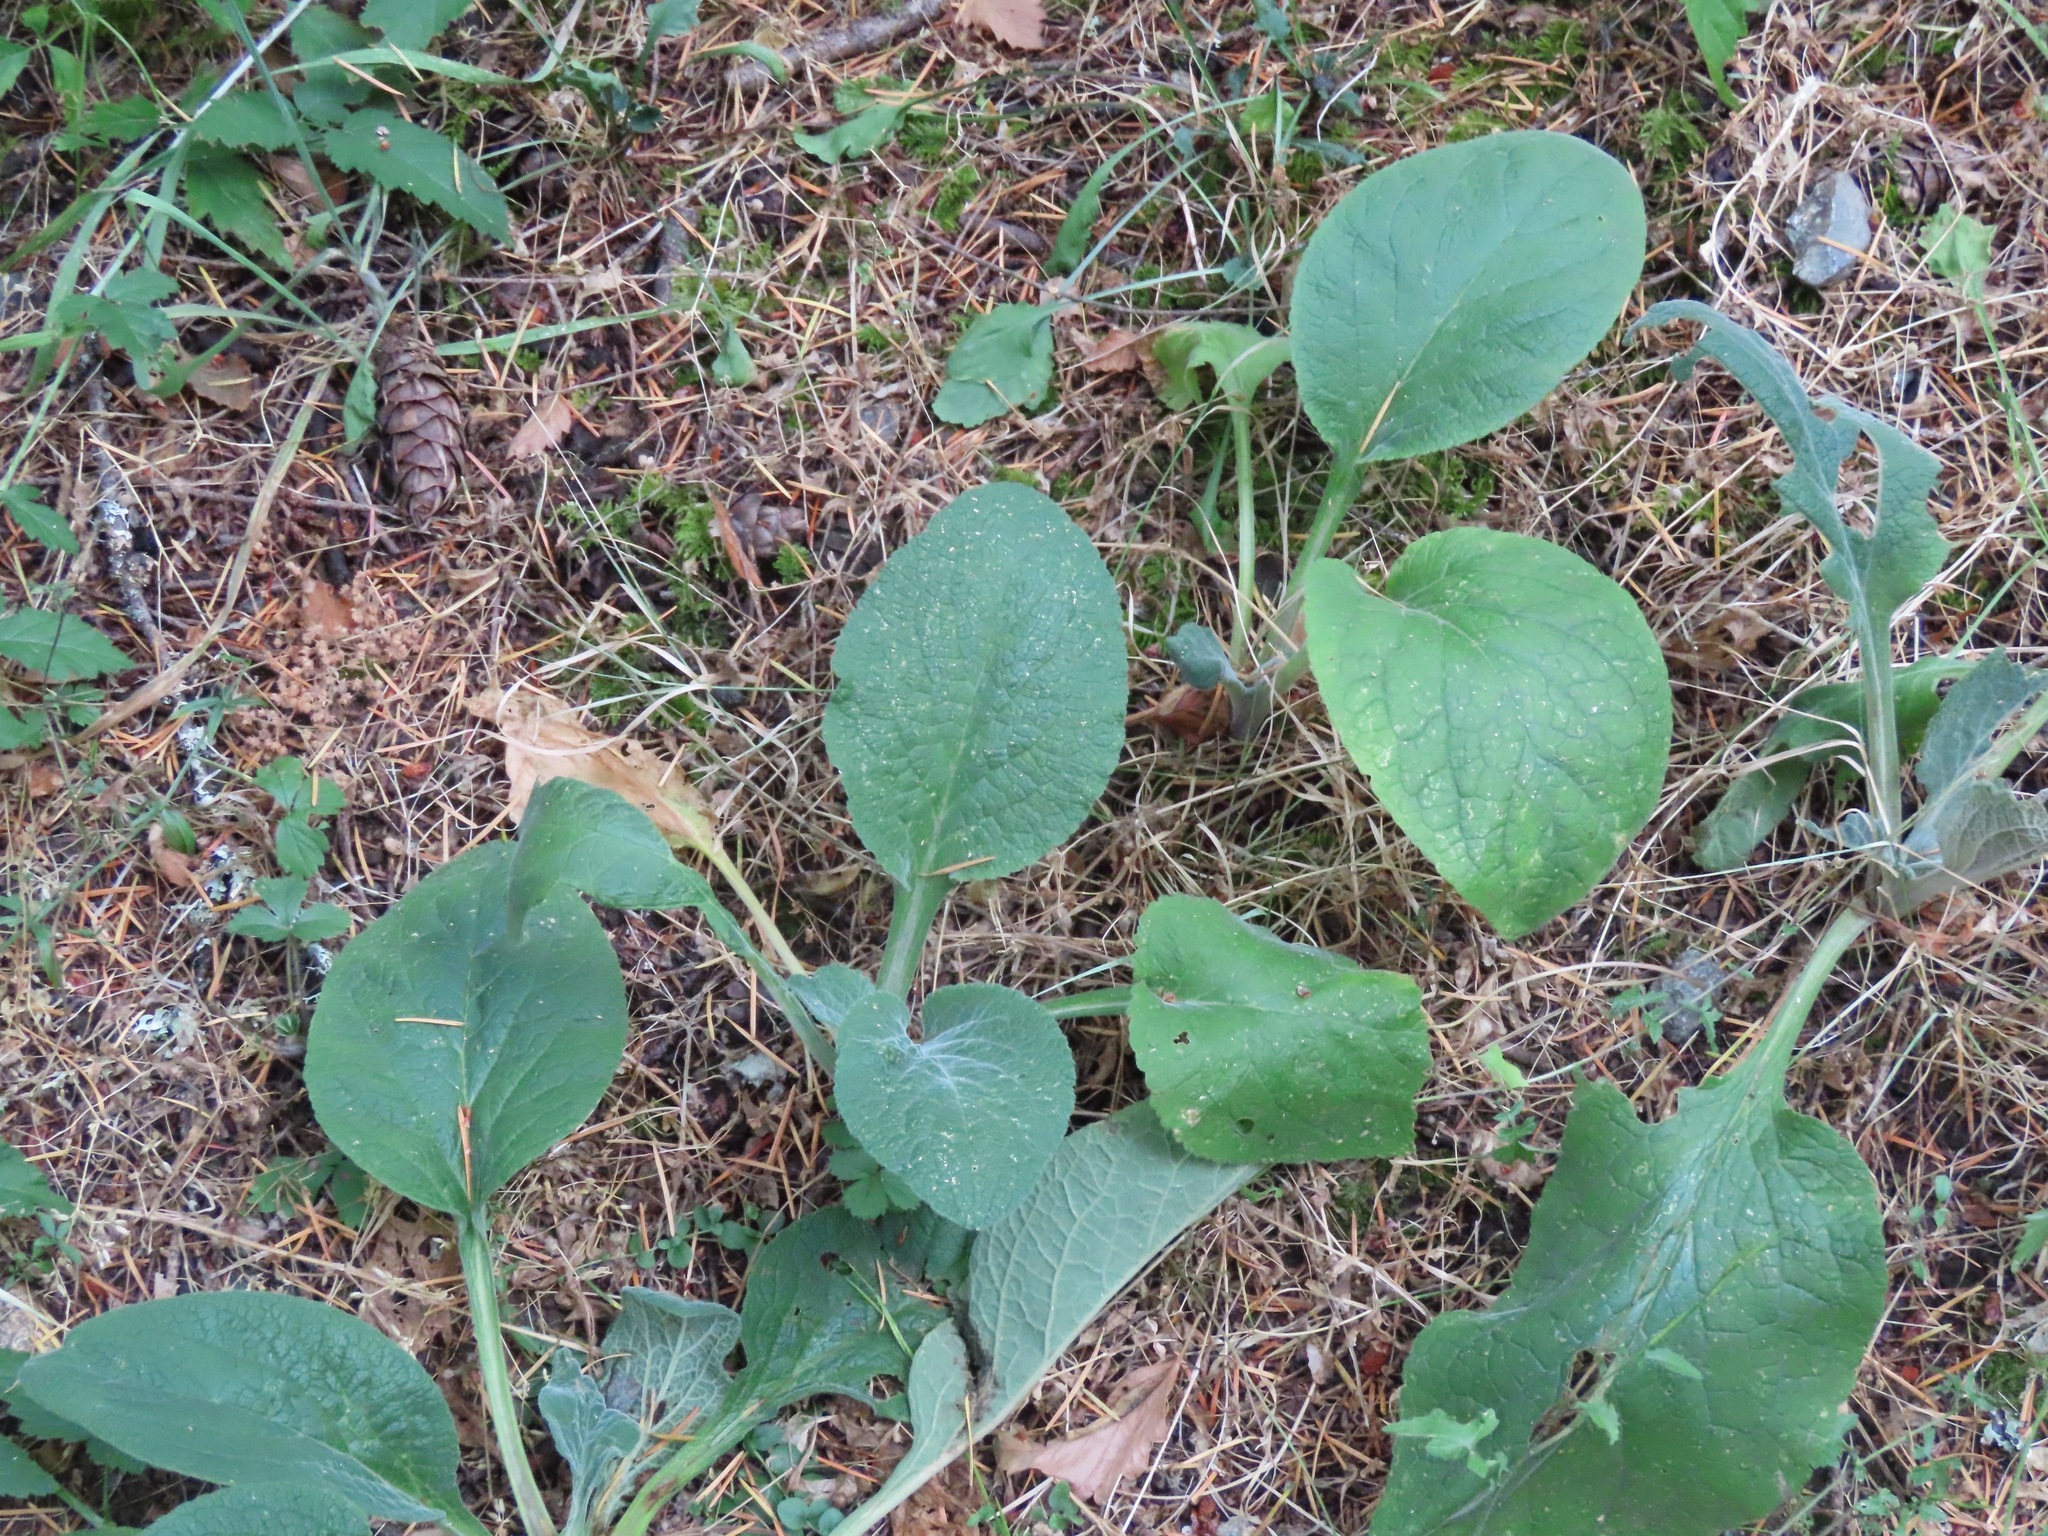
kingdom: Plantae
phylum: Tracheophyta
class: Magnoliopsida
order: Lamiales
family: Plantaginaceae
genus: Digitalis
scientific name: Digitalis purpurea
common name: Foxglove
